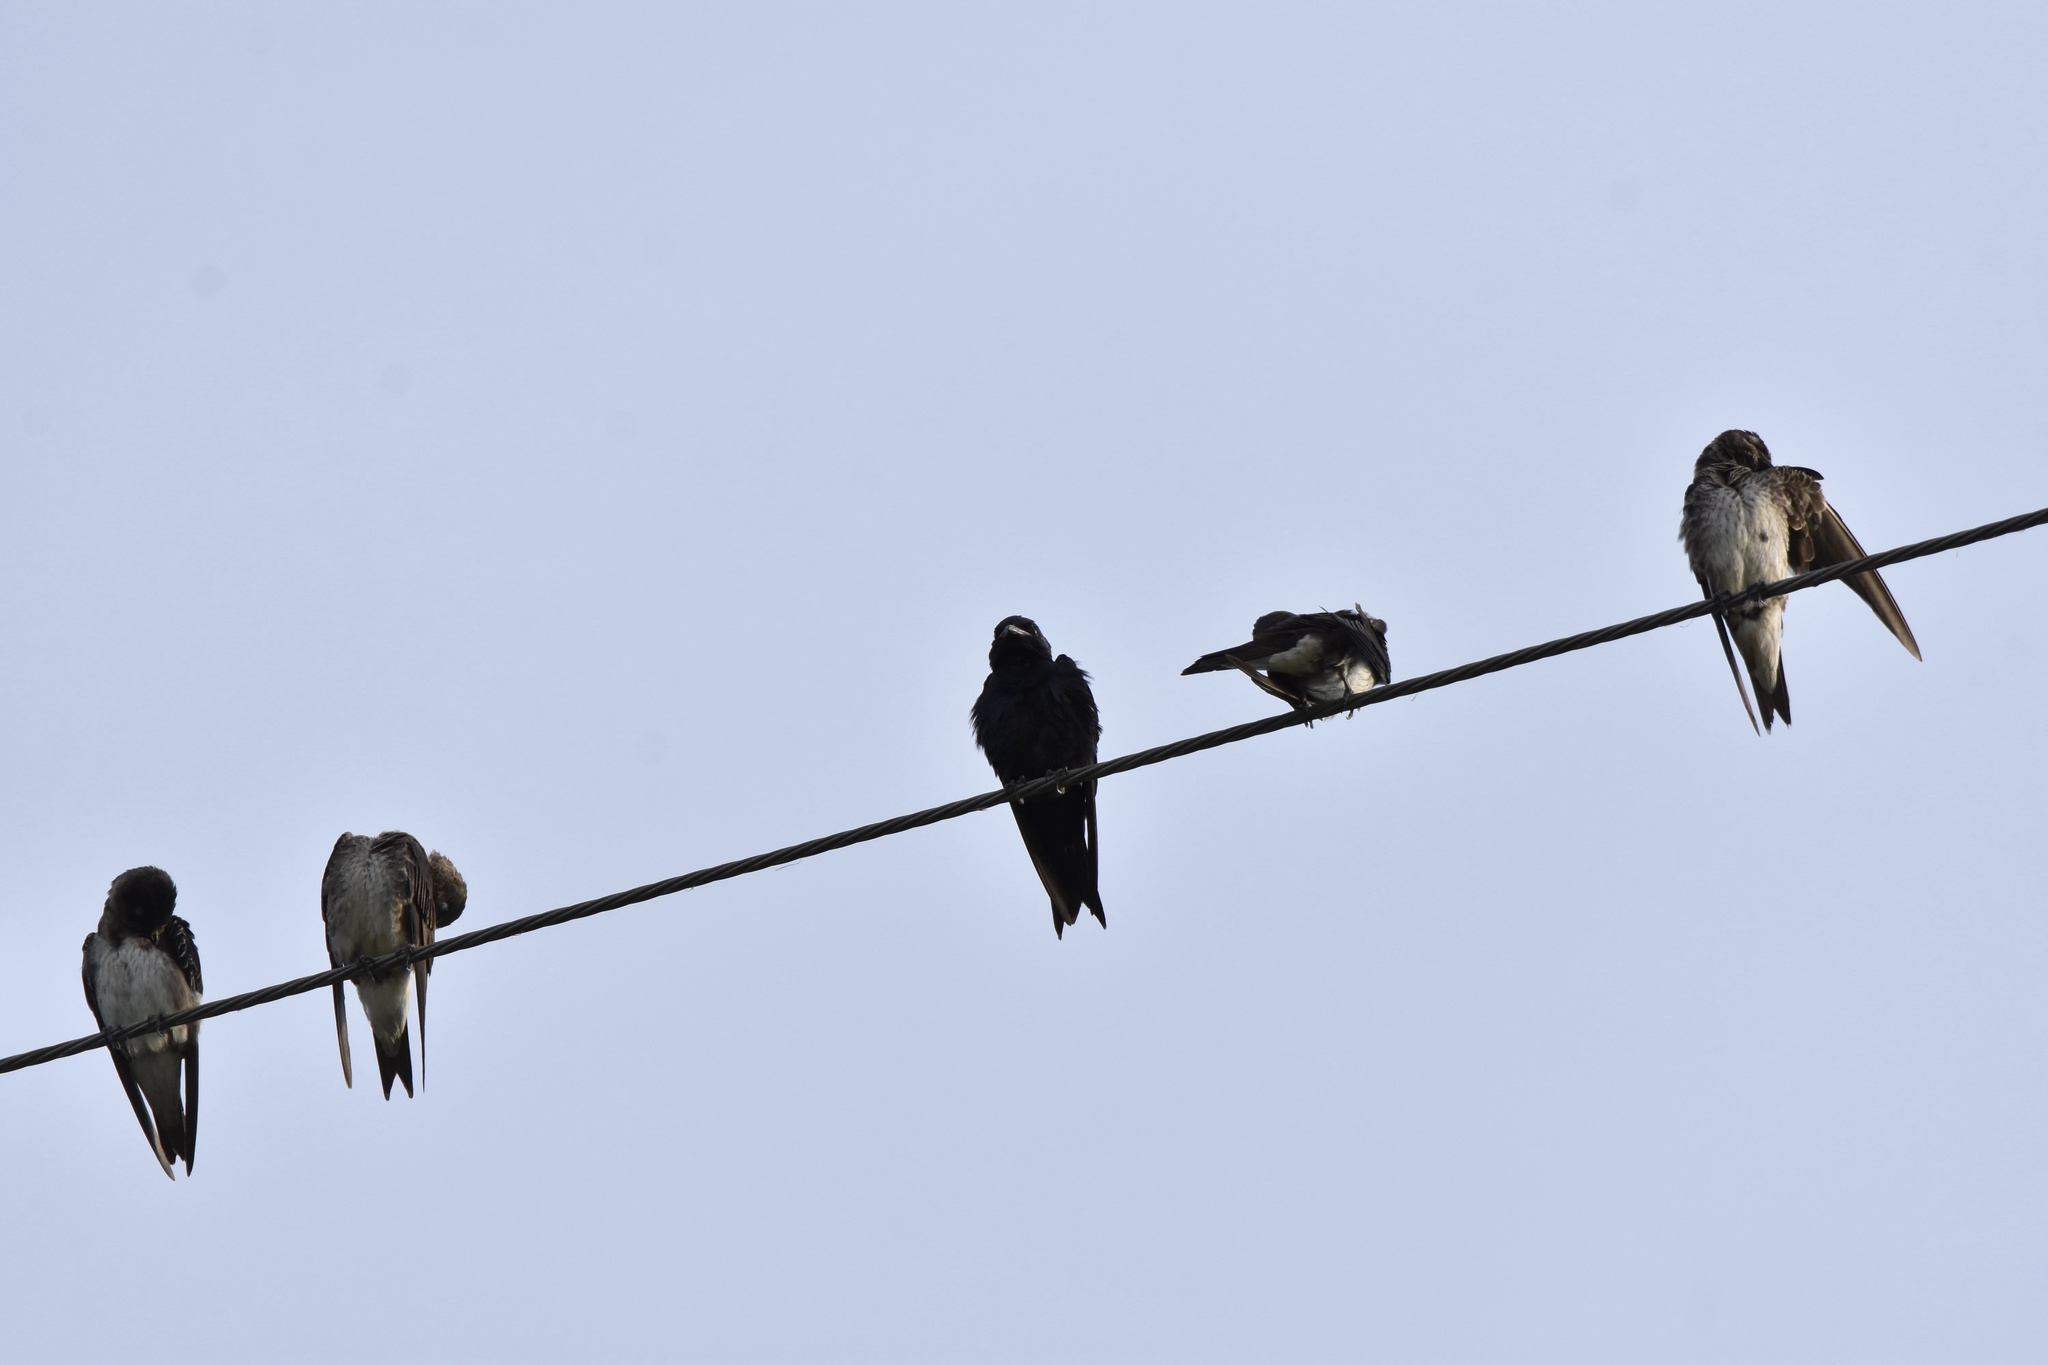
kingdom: Animalia
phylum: Chordata
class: Aves
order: Passeriformes
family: Hirundinidae
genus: Progne
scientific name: Progne subis
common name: Purple martin
